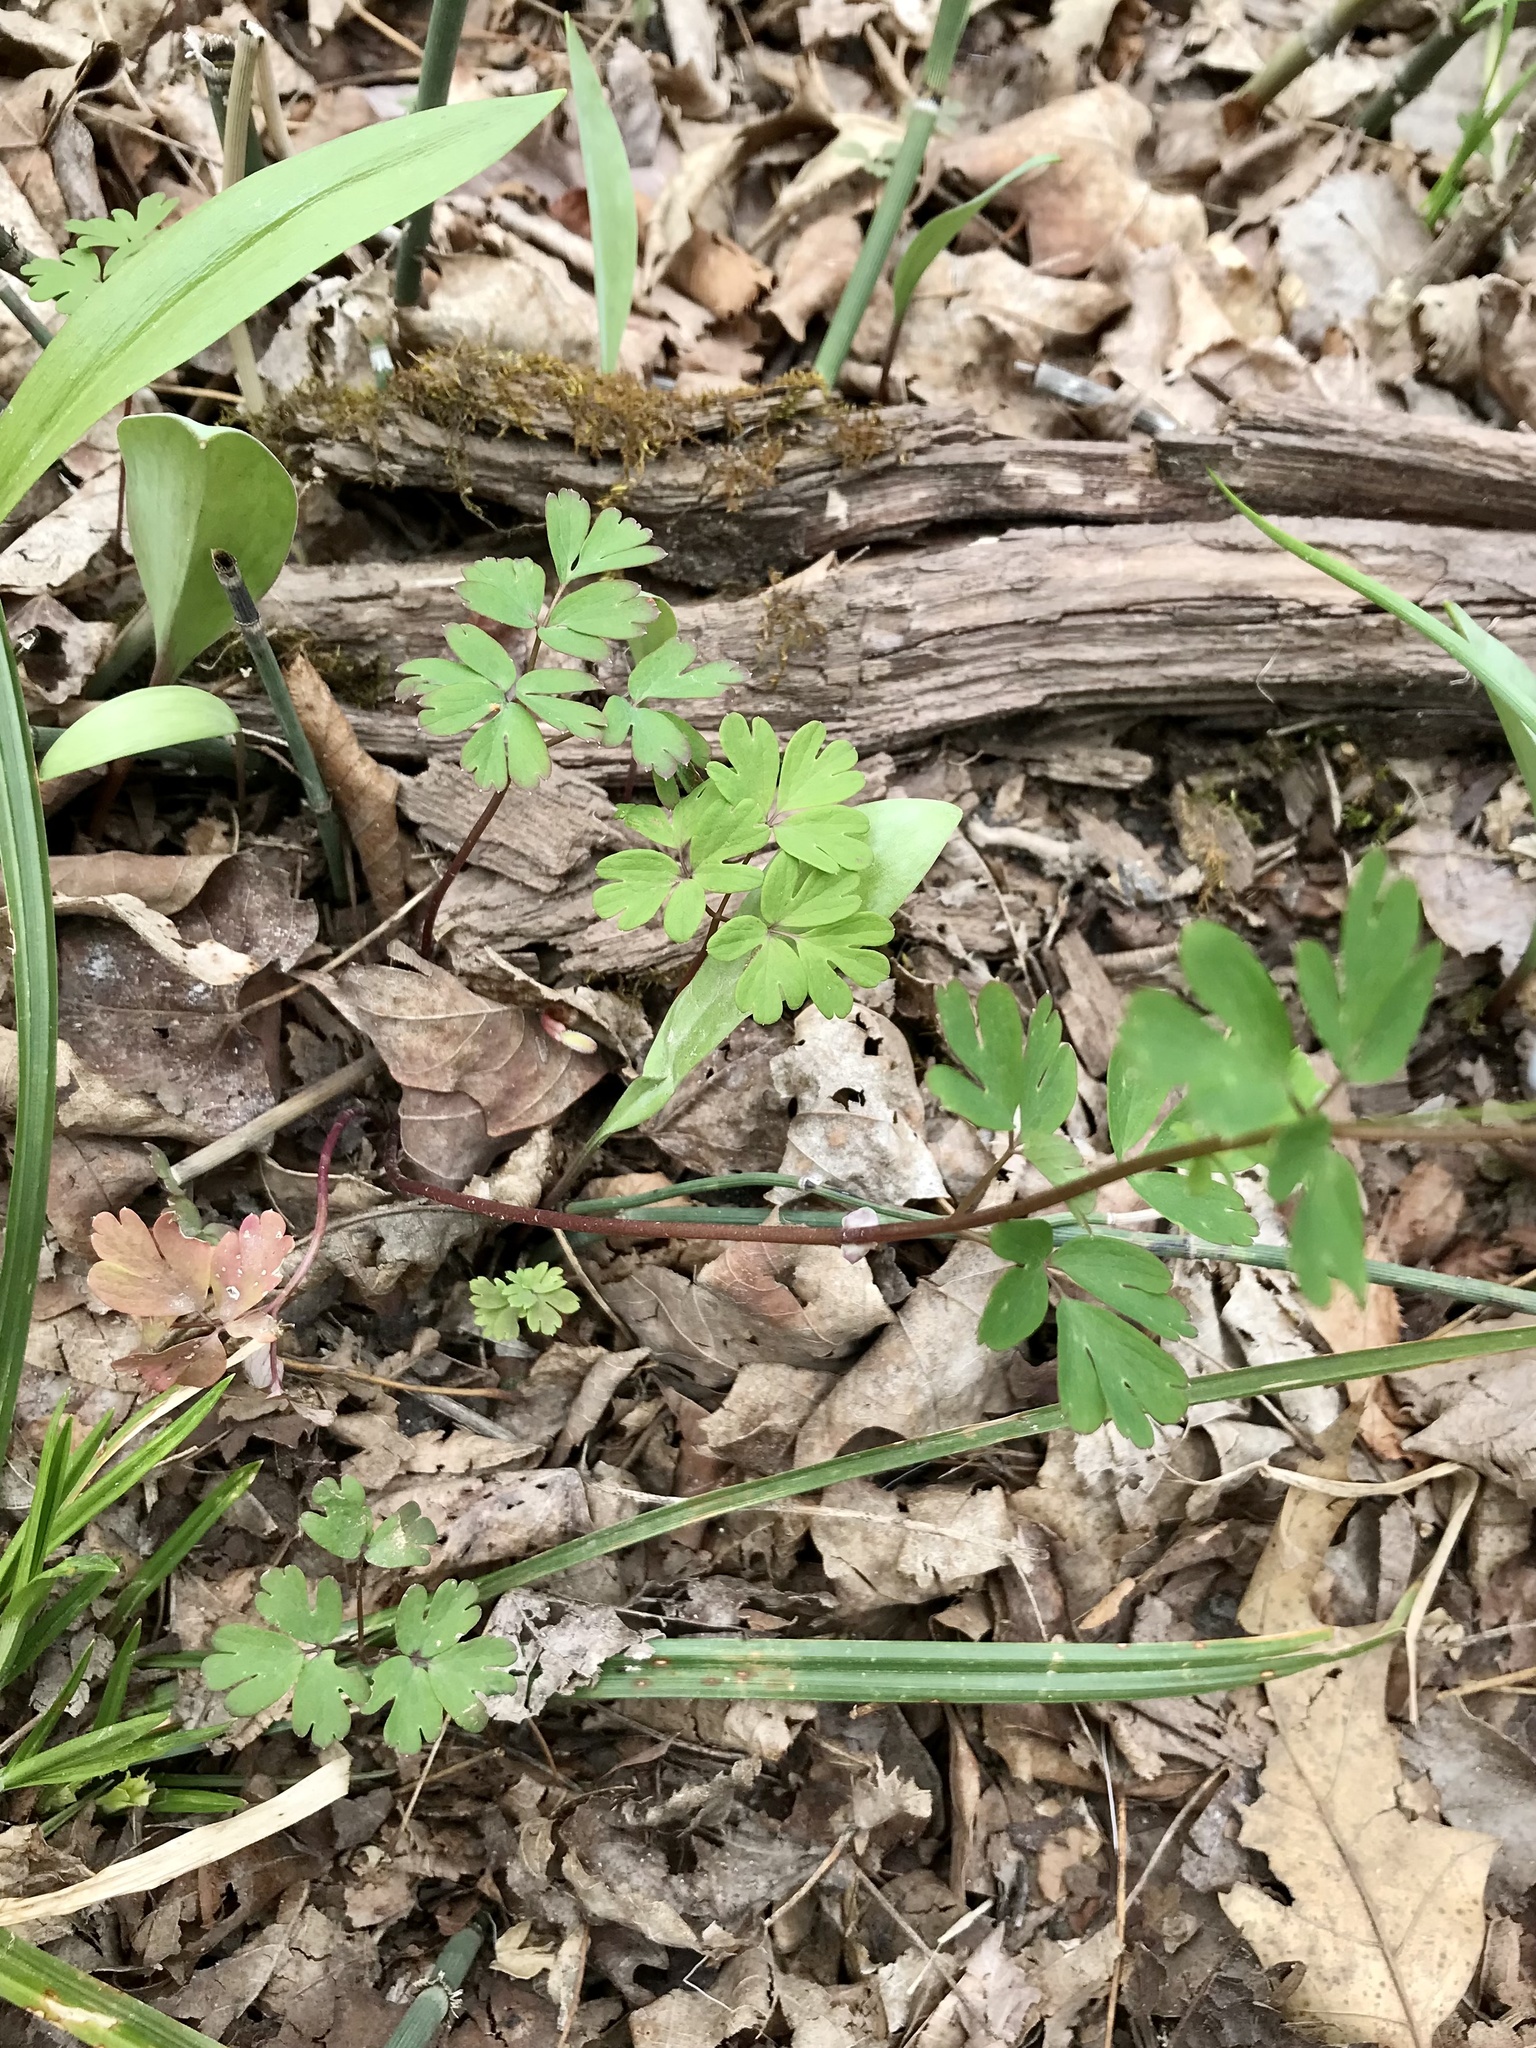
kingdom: Plantae
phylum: Tracheophyta
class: Magnoliopsida
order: Ranunculales
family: Ranunculaceae
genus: Enemion
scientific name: Enemion biternatum
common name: Eastern false rue-anemone
